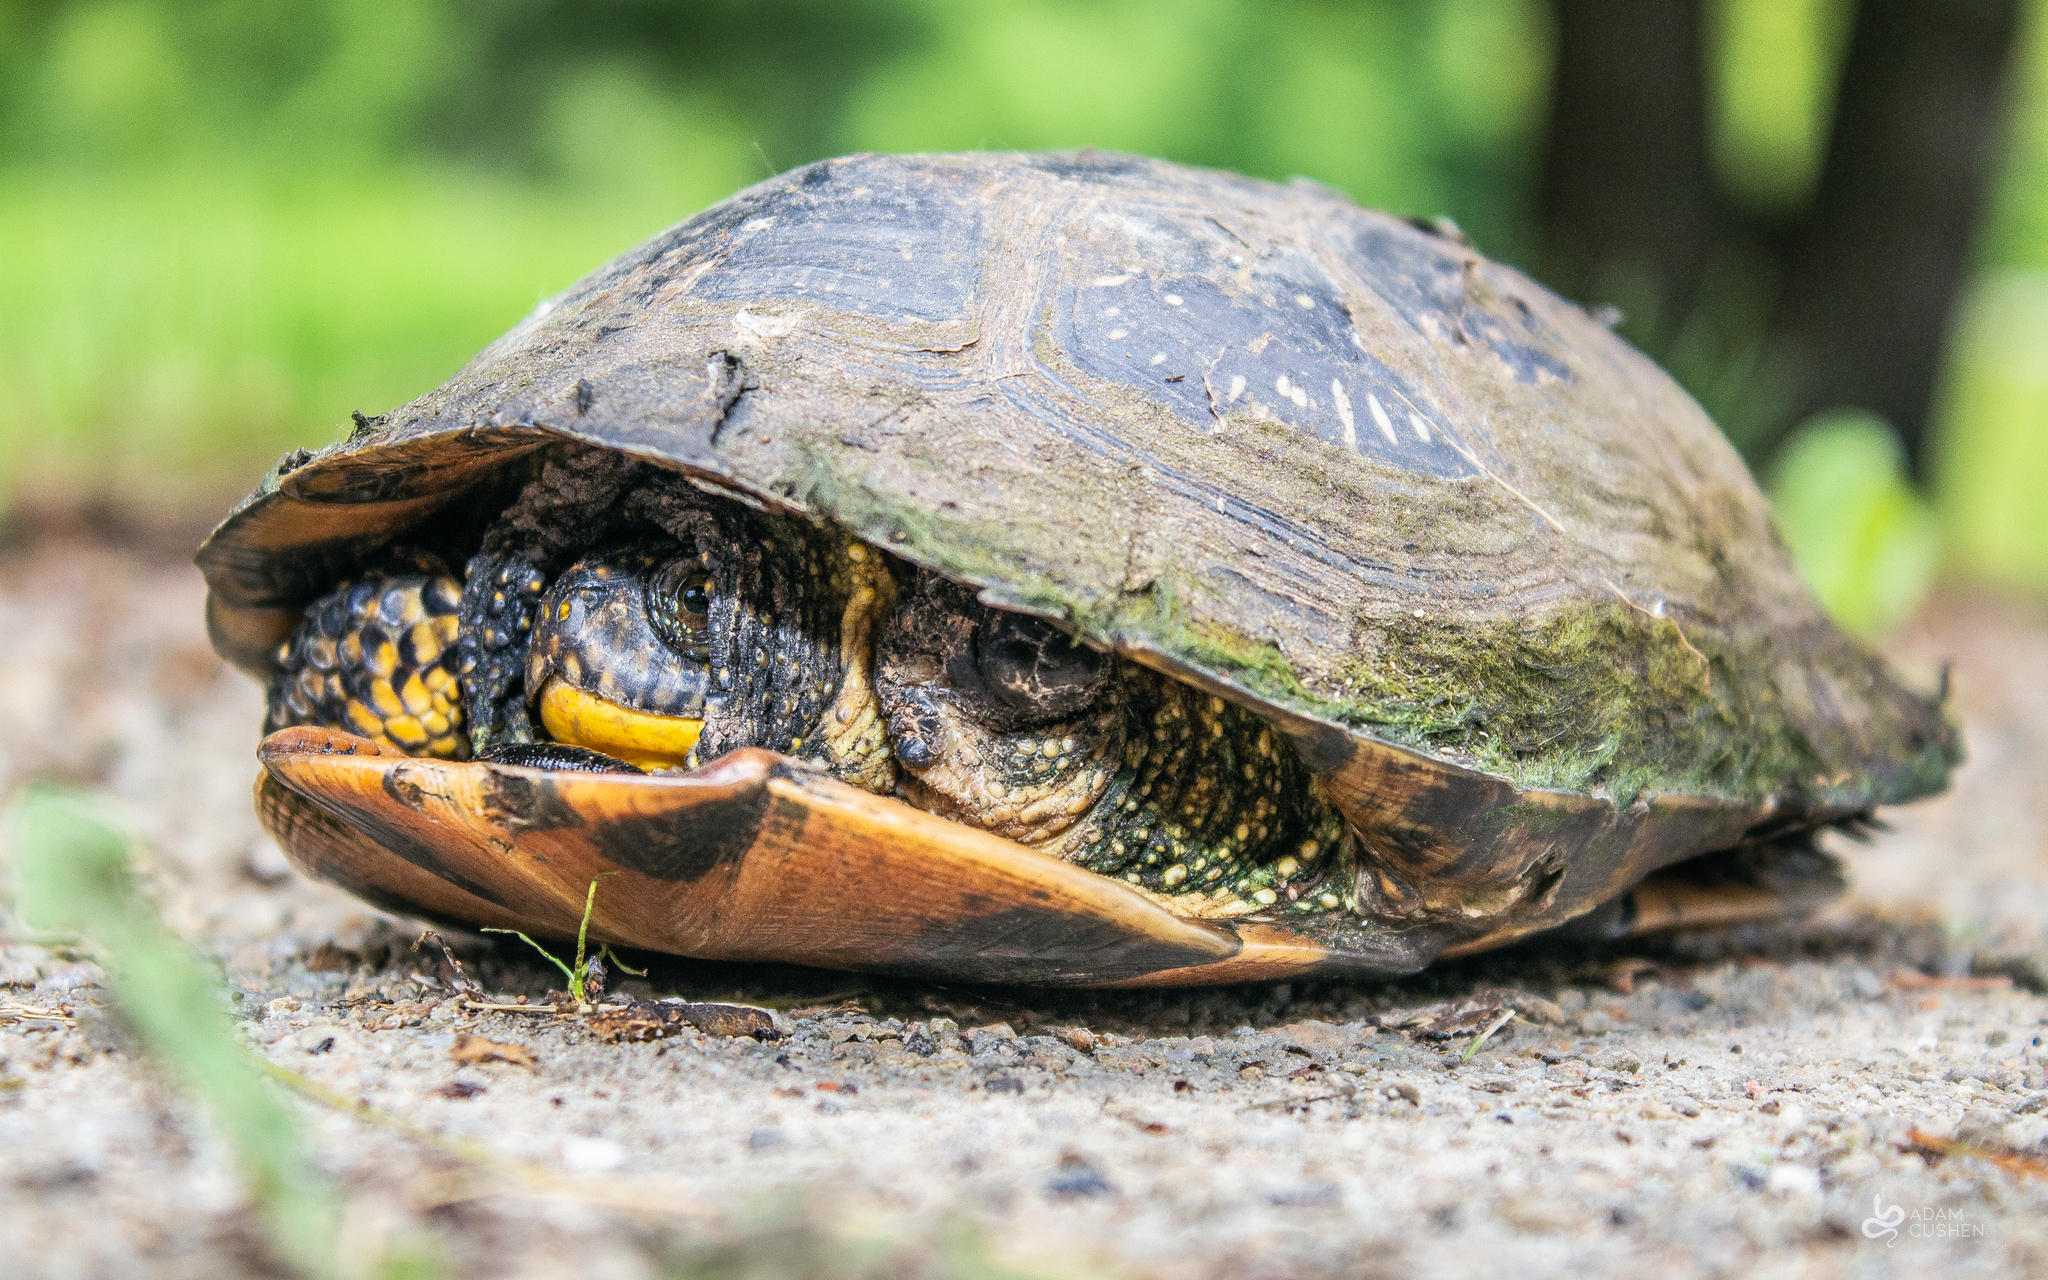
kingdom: Animalia
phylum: Chordata
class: Testudines
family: Emydidae
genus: Emys
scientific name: Emys blandingii
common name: Blanding's turtle
